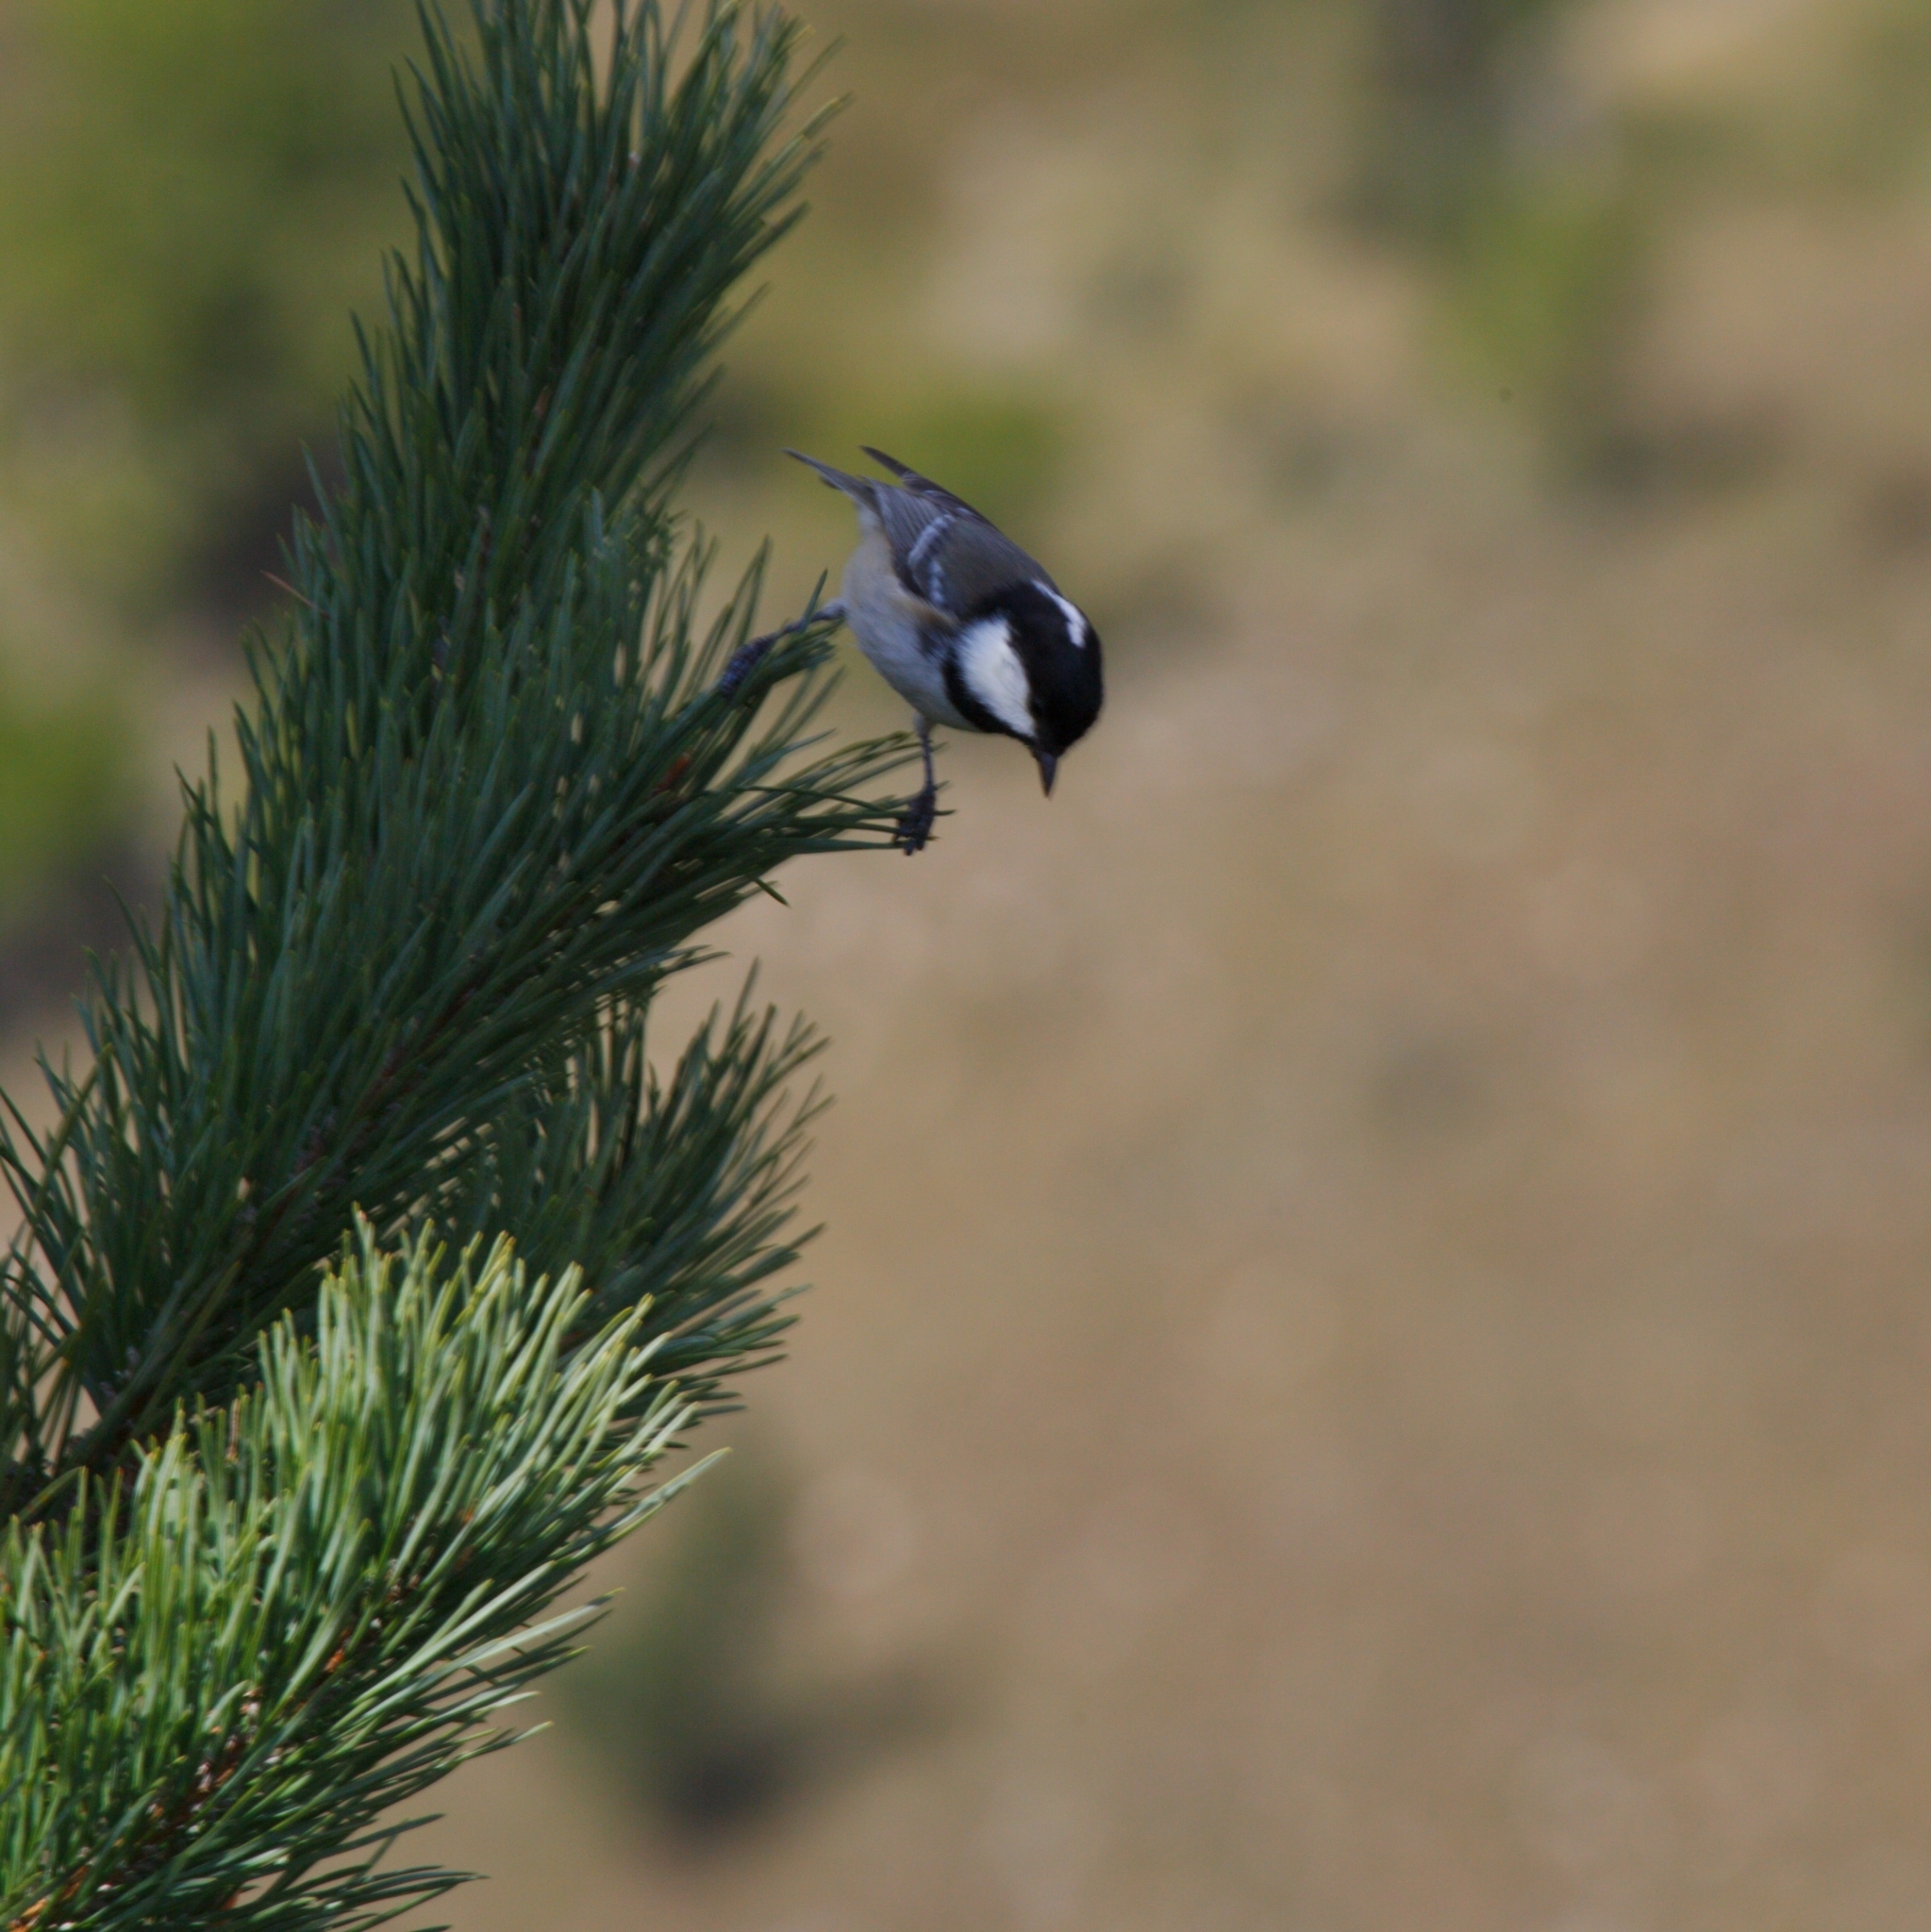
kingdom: Animalia
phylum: Chordata
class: Aves
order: Passeriformes
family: Paridae
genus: Periparus
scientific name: Periparus ater
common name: Coal tit
